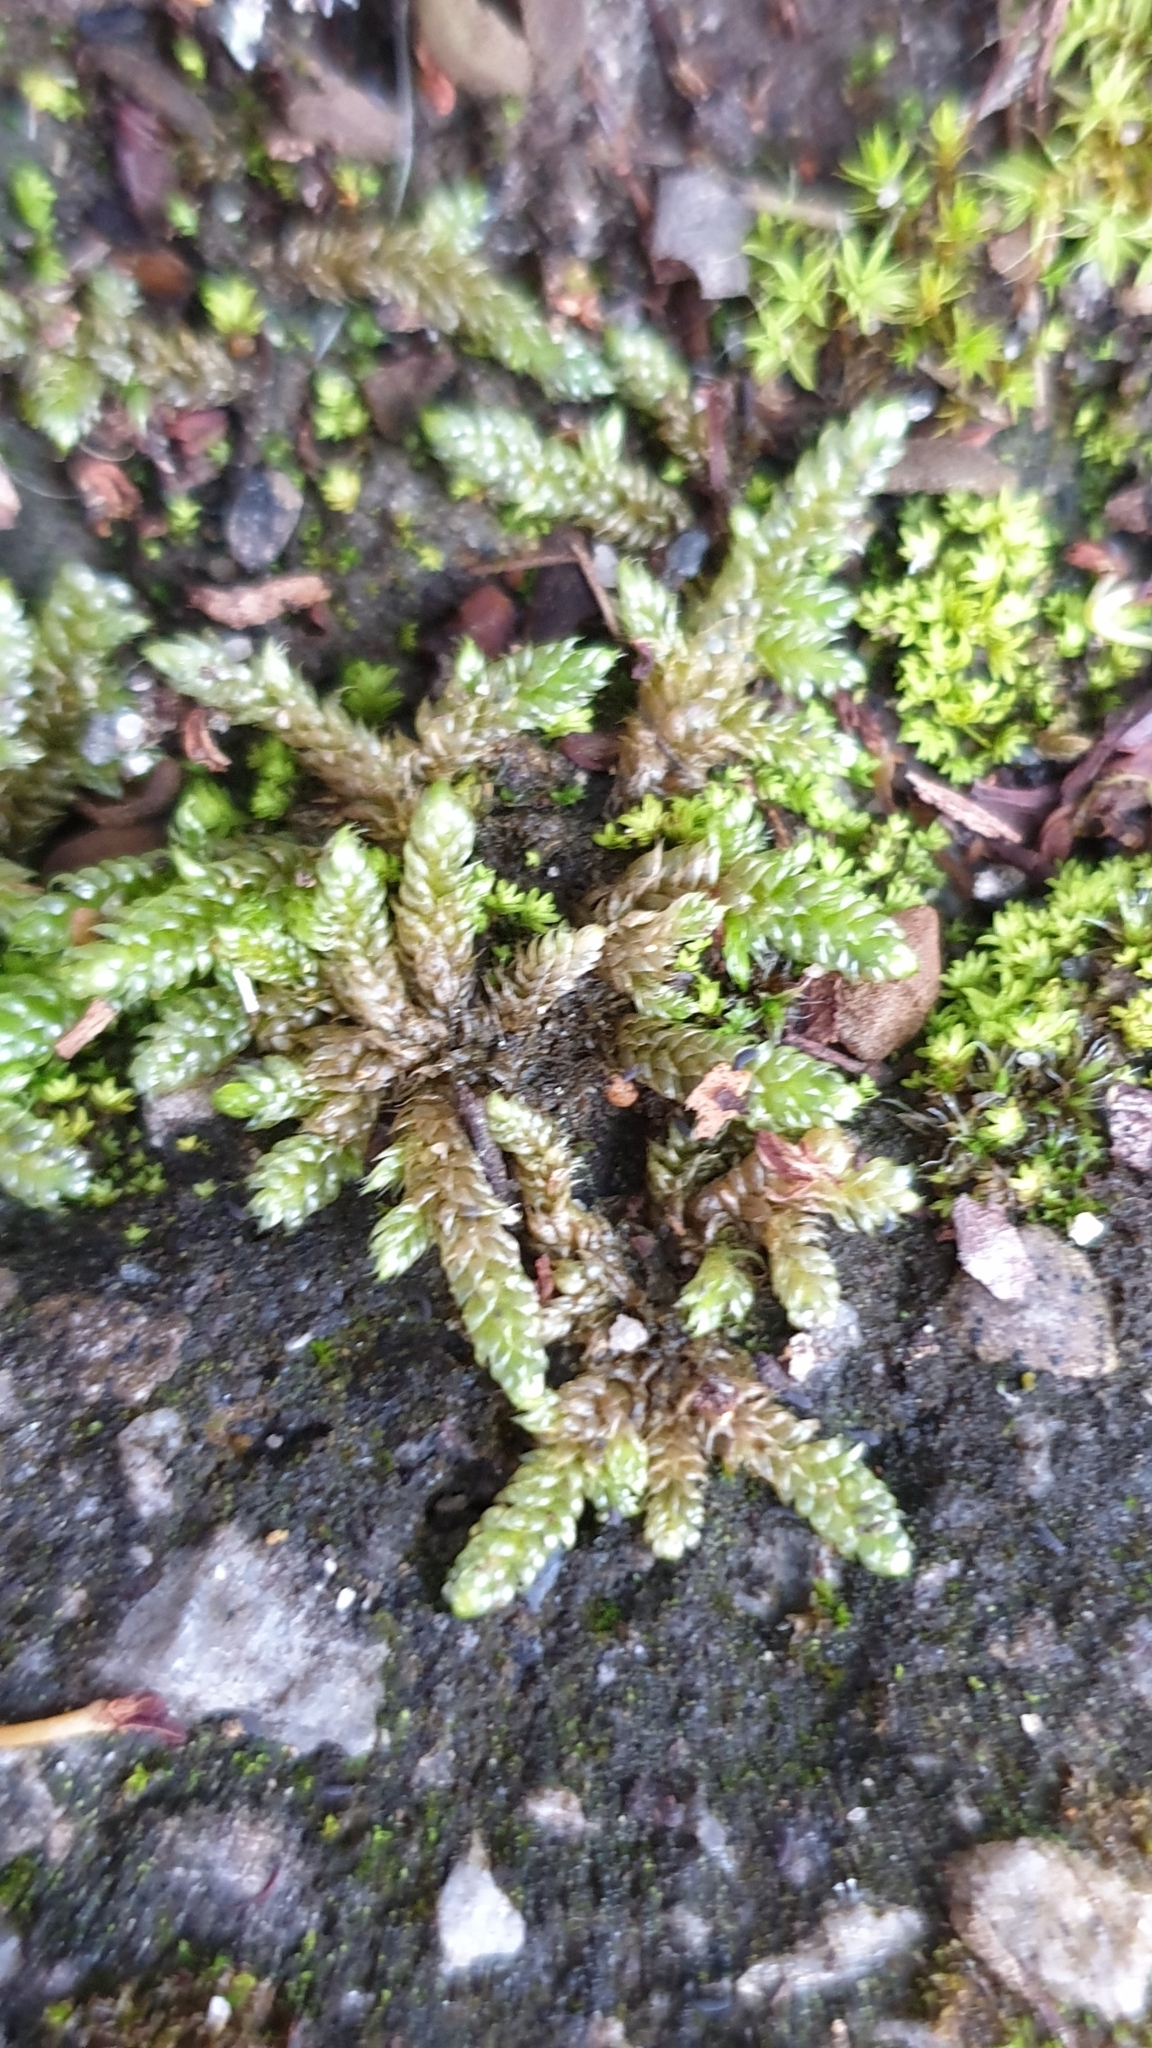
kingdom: Plantae
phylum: Bryophyta
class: Bryopsida
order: Hypnales
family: Hypnaceae
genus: Hypnum
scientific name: Hypnum cupressiforme
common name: Cypress-leaved plait-moss
